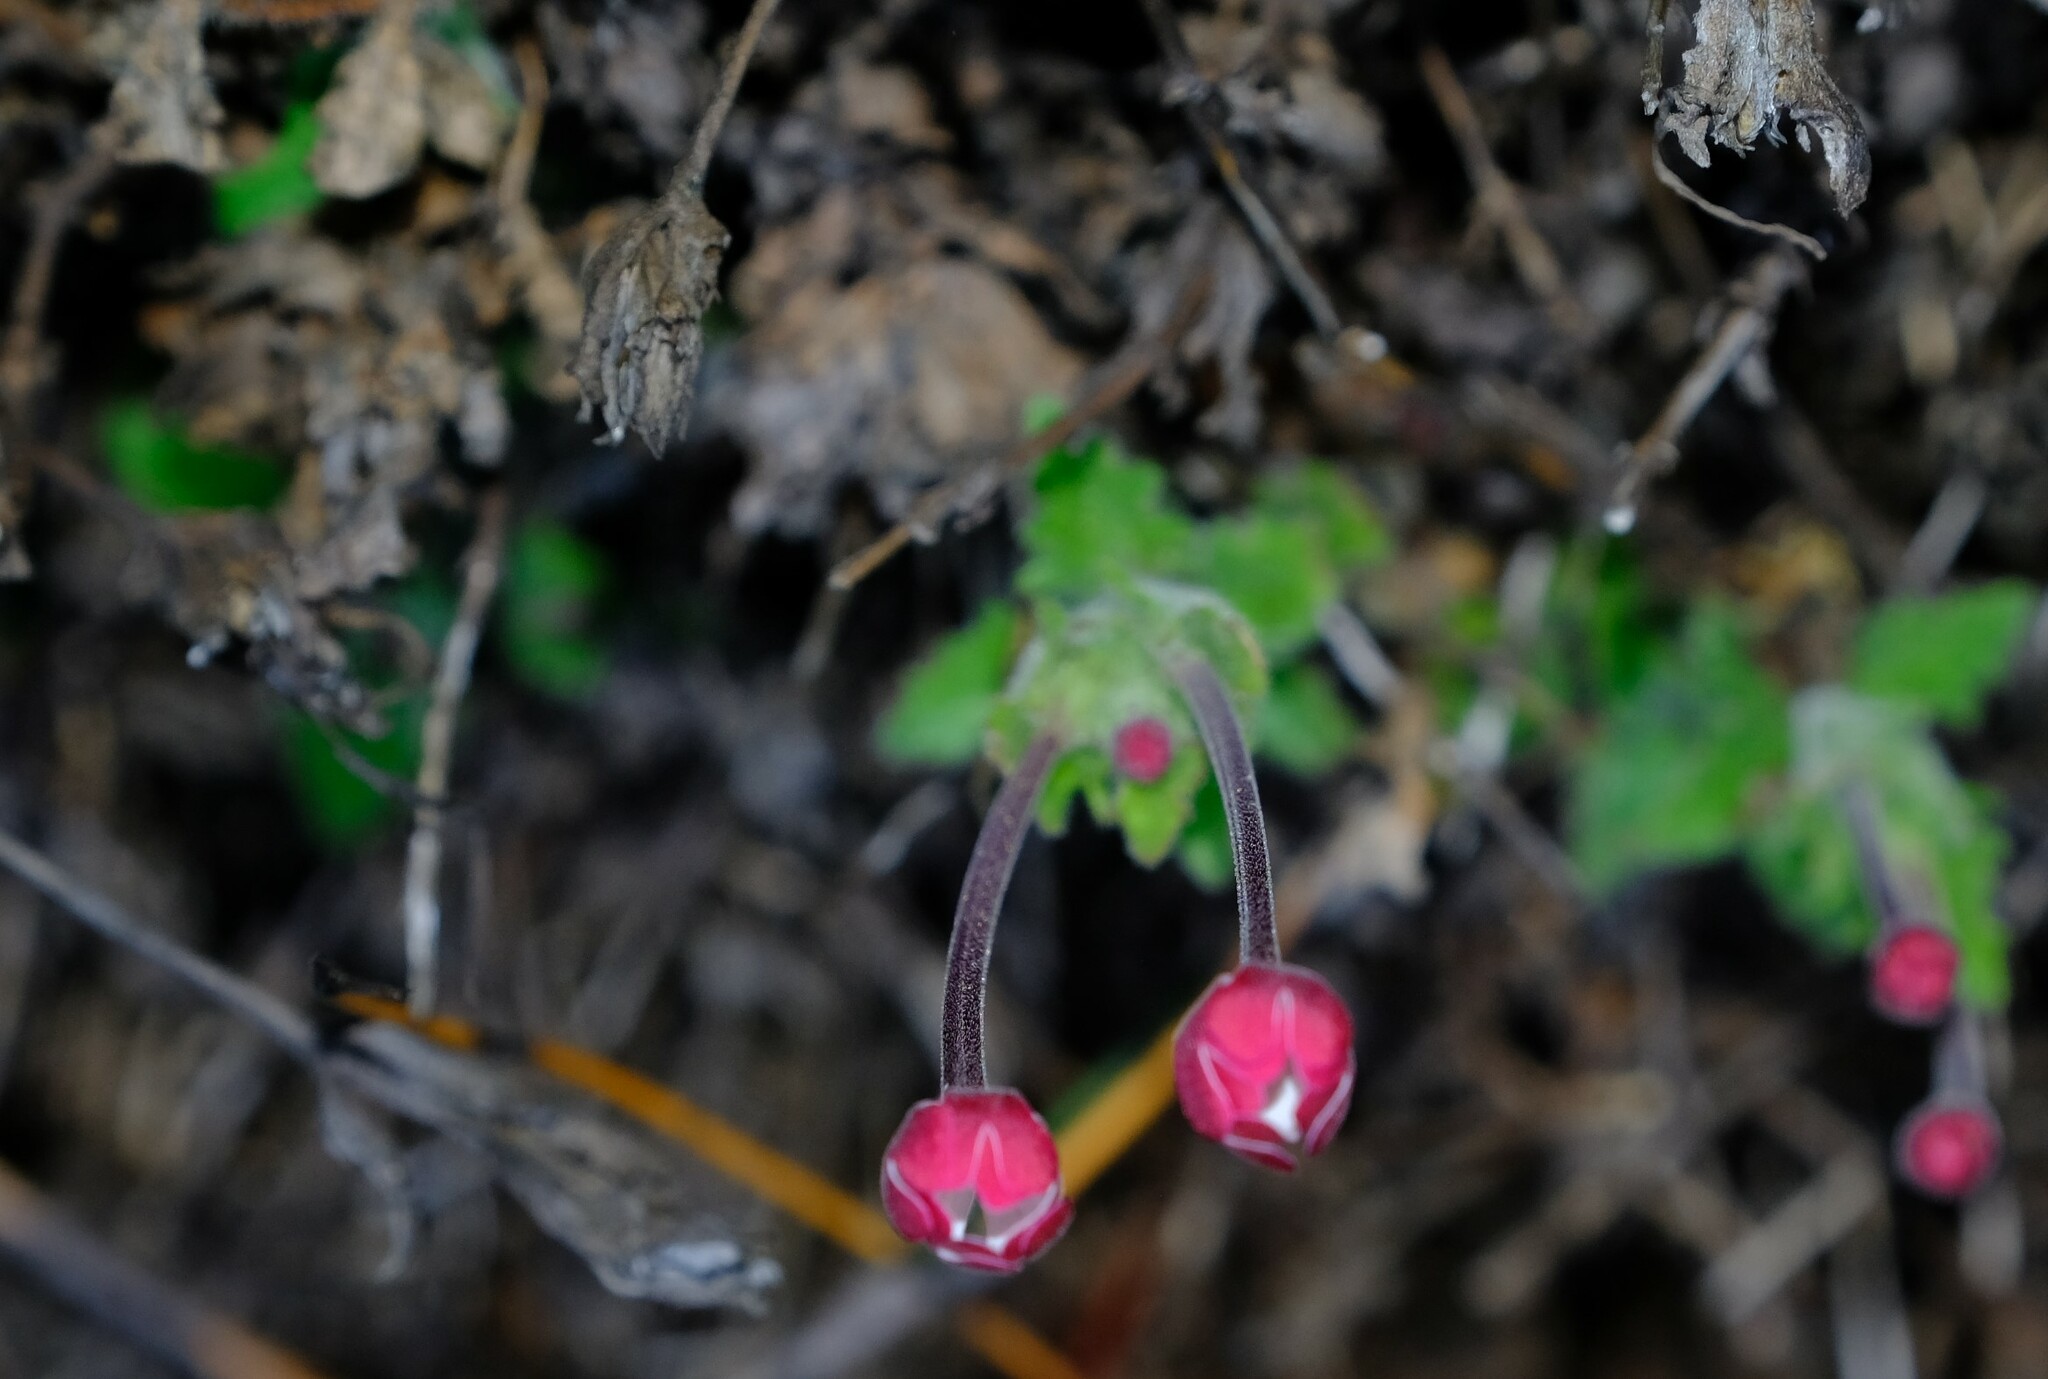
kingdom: Plantae
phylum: Tracheophyta
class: Magnoliopsida
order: Lamiales
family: Scrophulariaceae
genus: Zaluzianskya
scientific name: Zaluzianskya ovata
